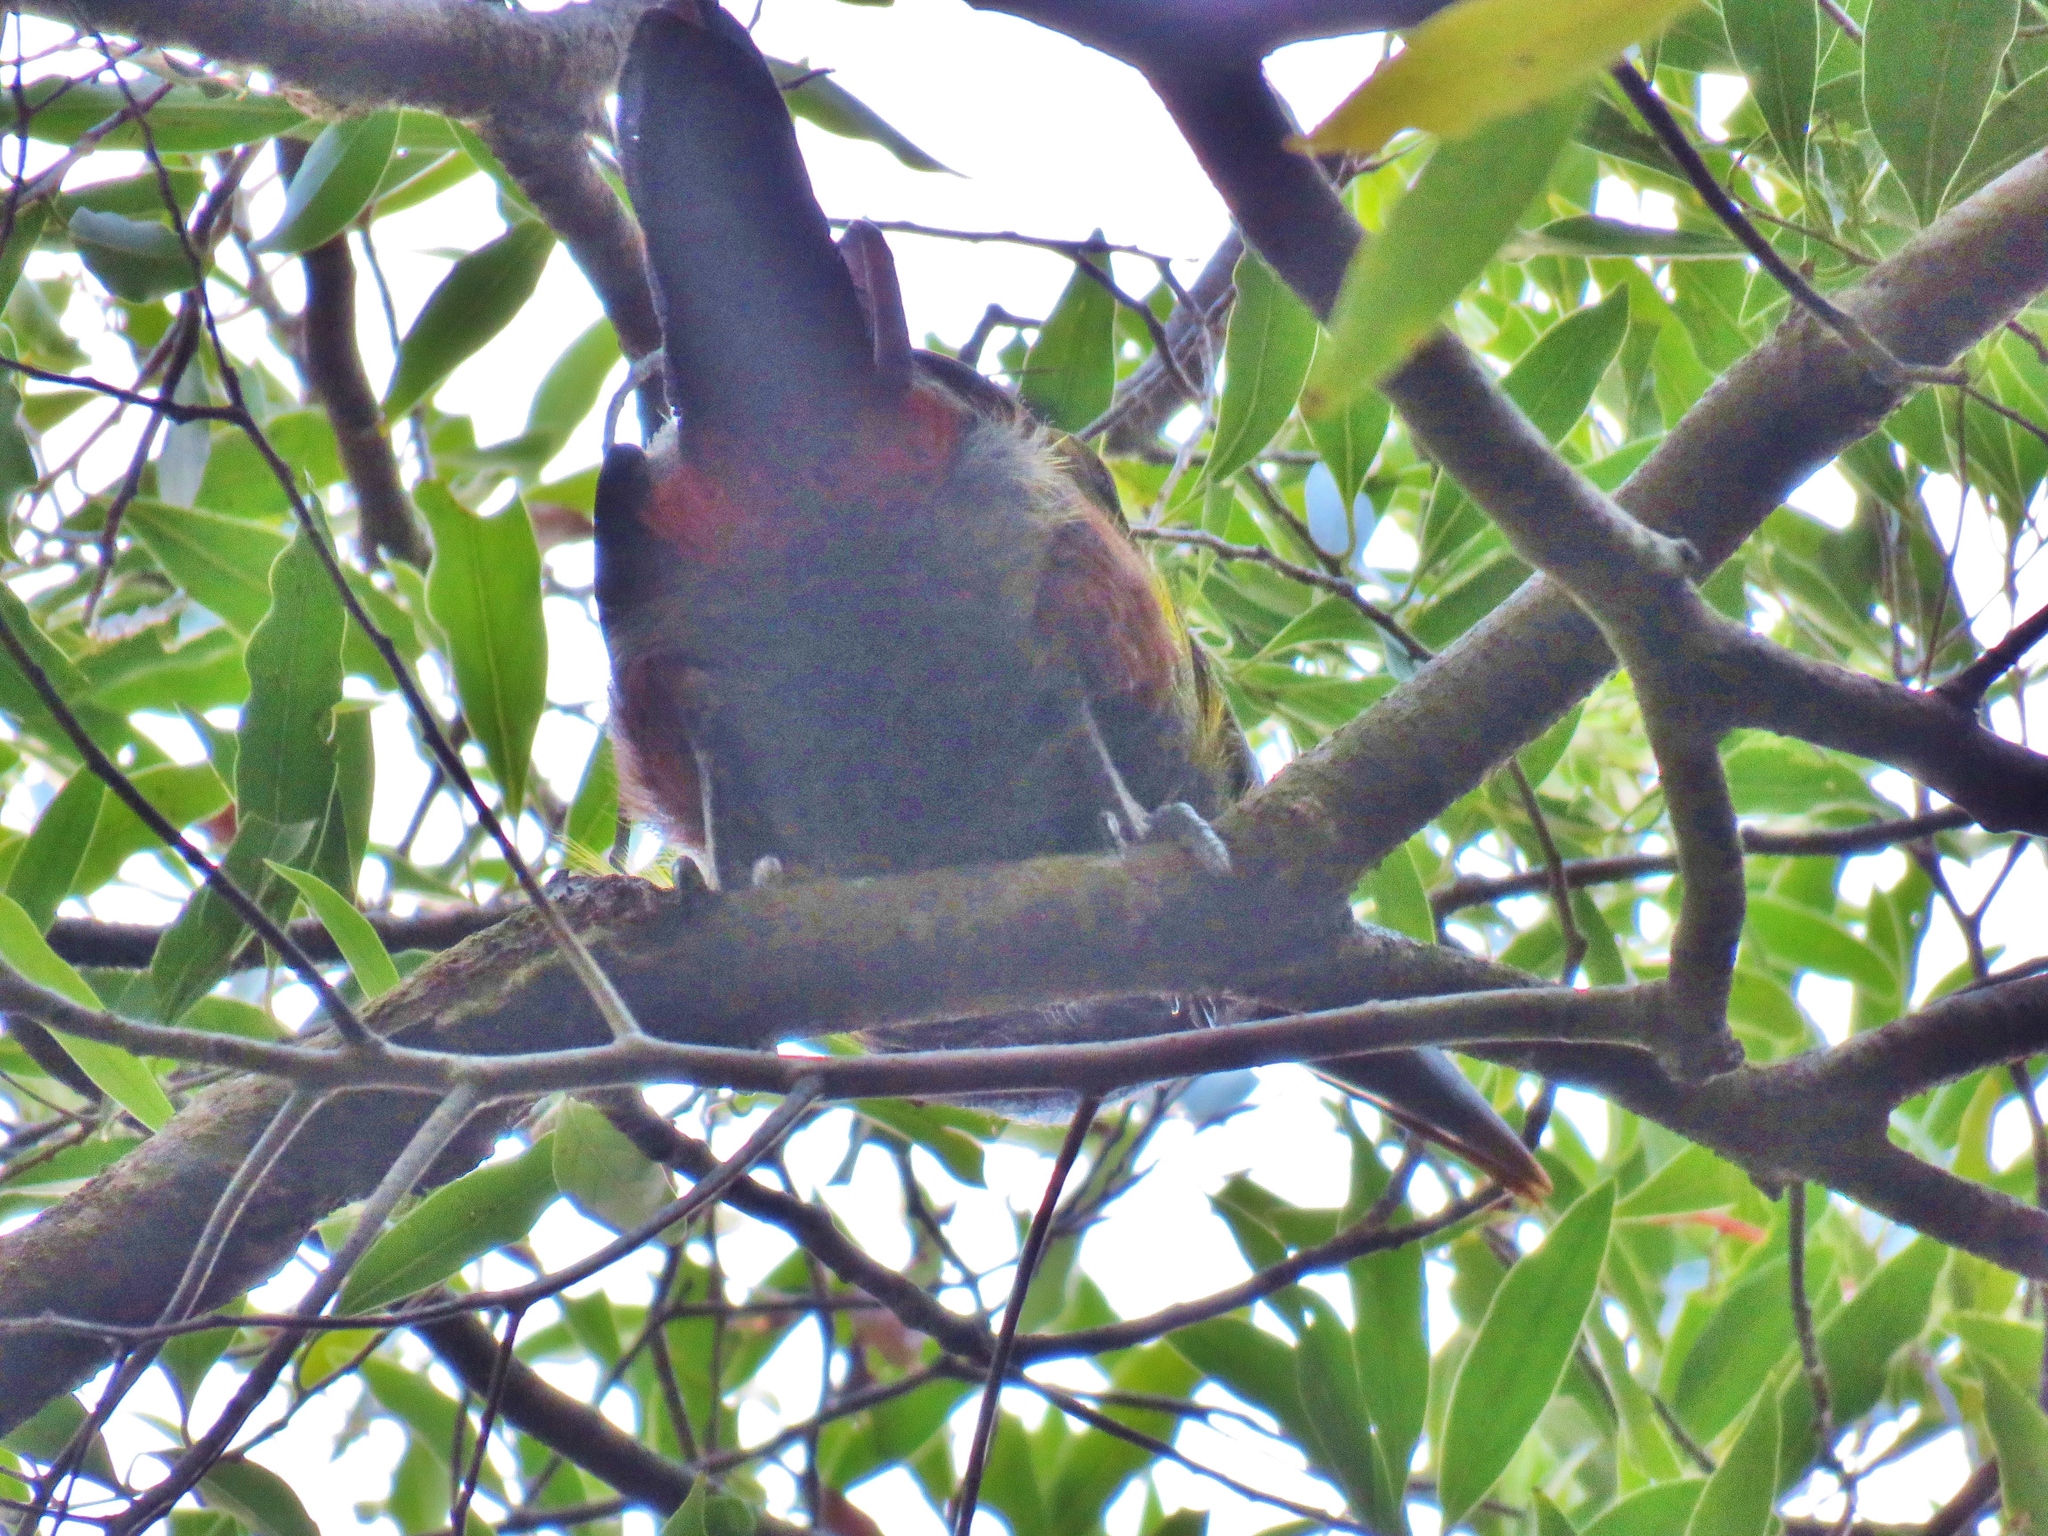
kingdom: Animalia
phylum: Chordata
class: Aves
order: Piciformes
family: Ramphastidae
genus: Pteroglossus
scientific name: Pteroglossus torquatus
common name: Collared aracari
